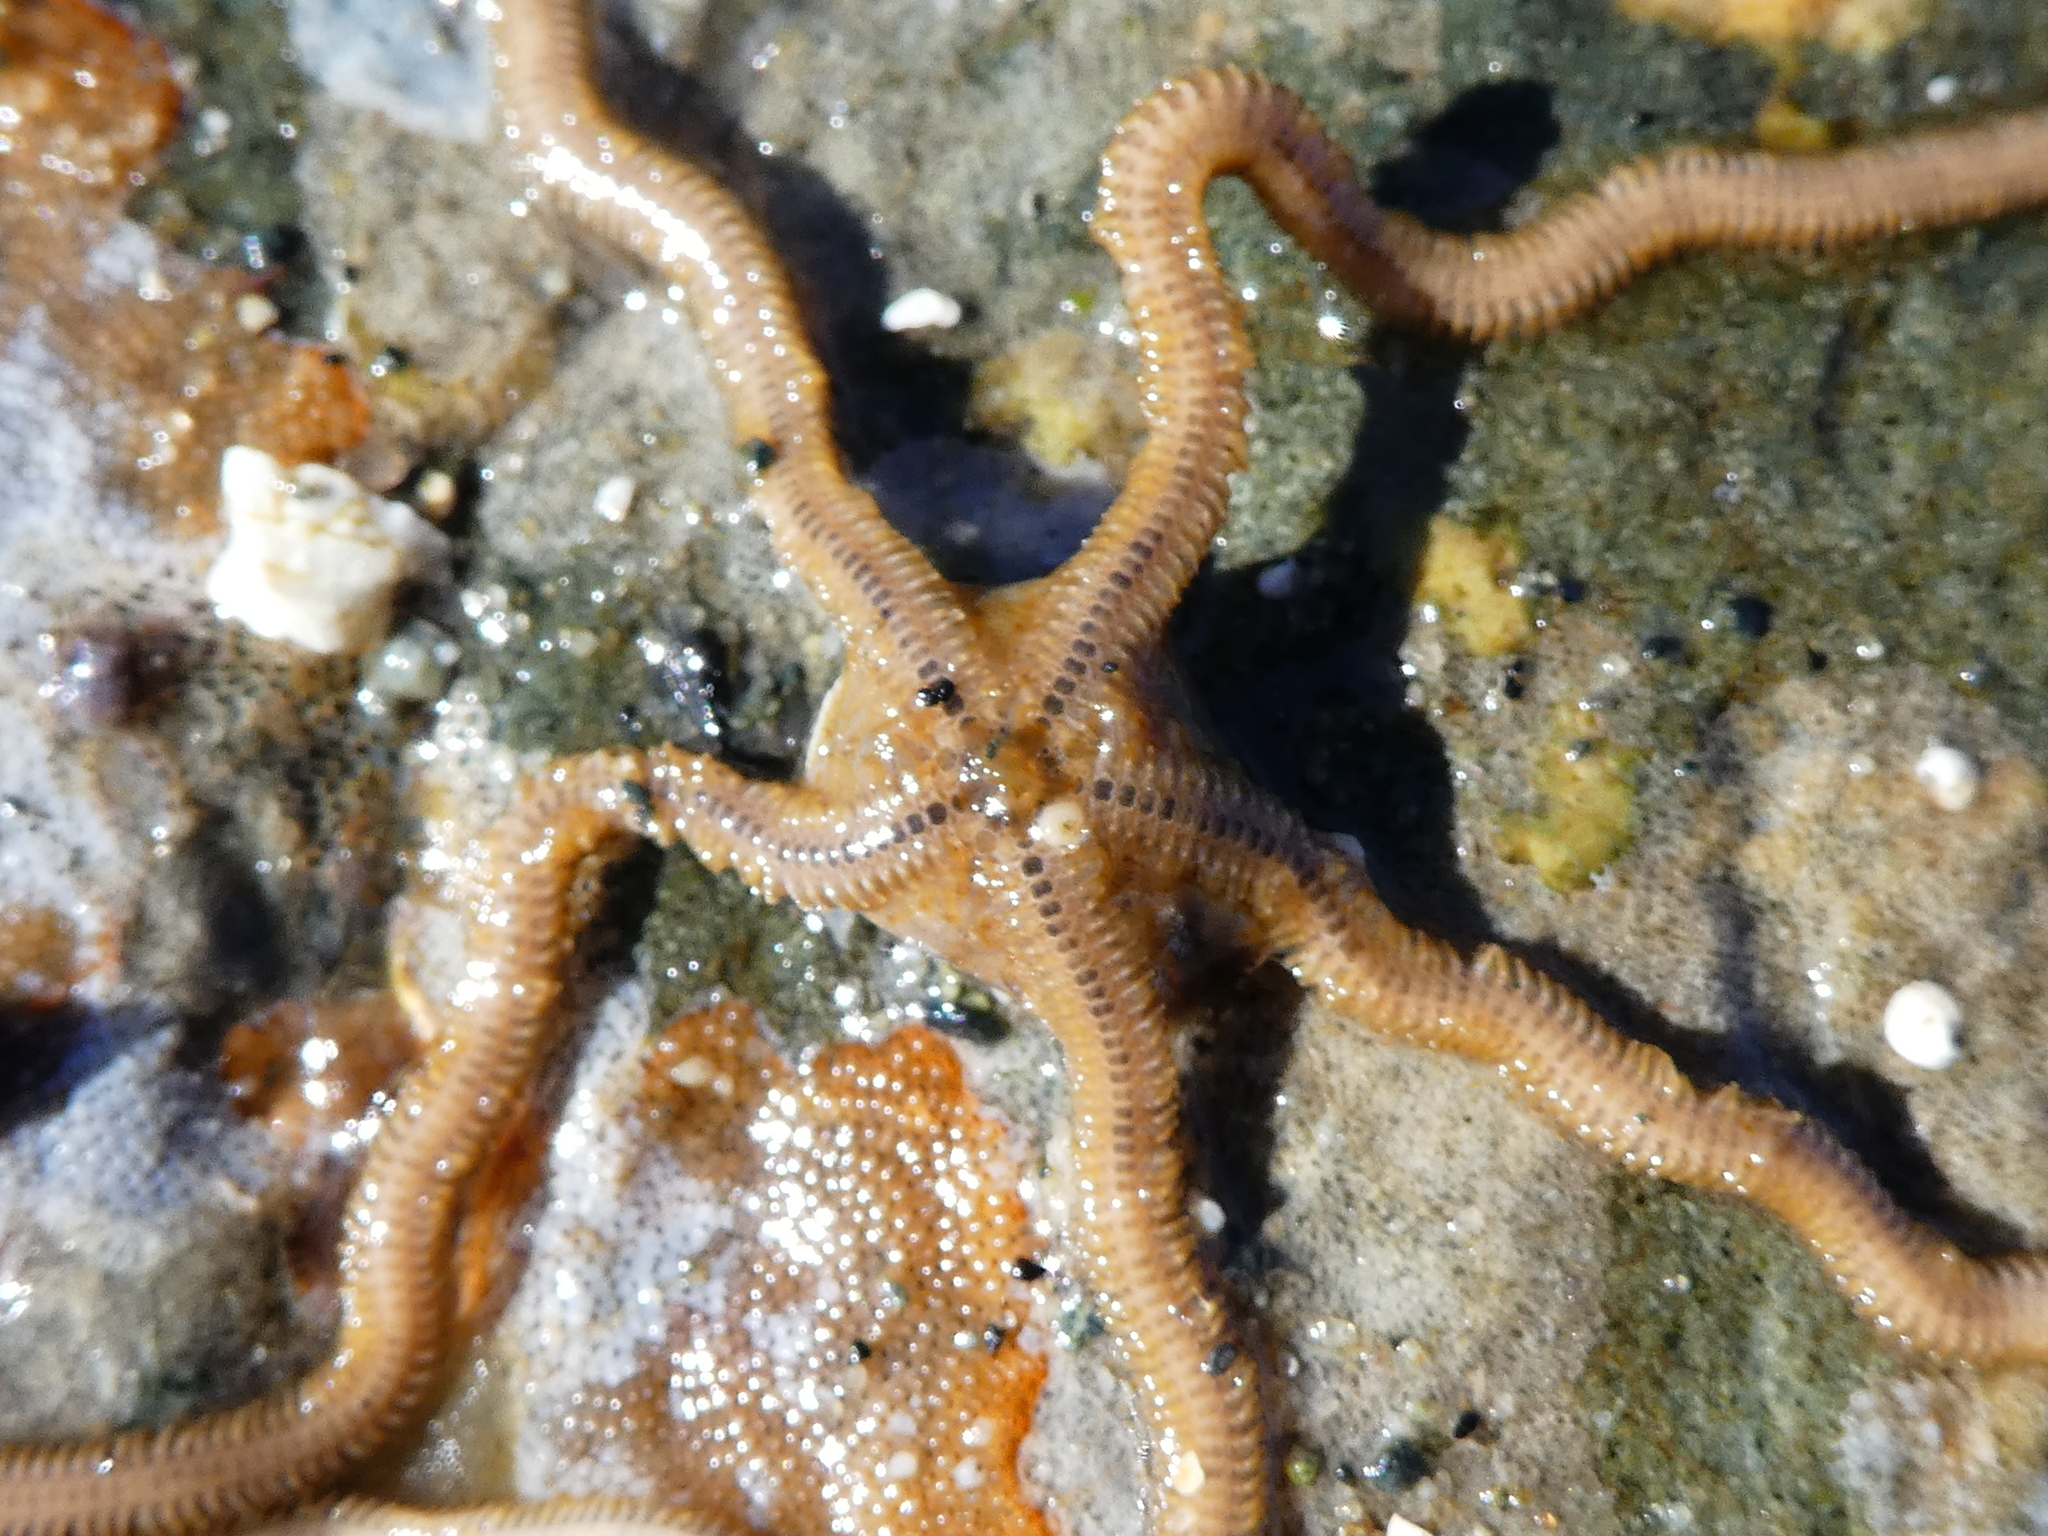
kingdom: Animalia
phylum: Echinodermata
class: Ophiuroidea
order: Amphilepidida
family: Amphiuridae
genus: Amphiodia
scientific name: Amphiodia occidentalis
